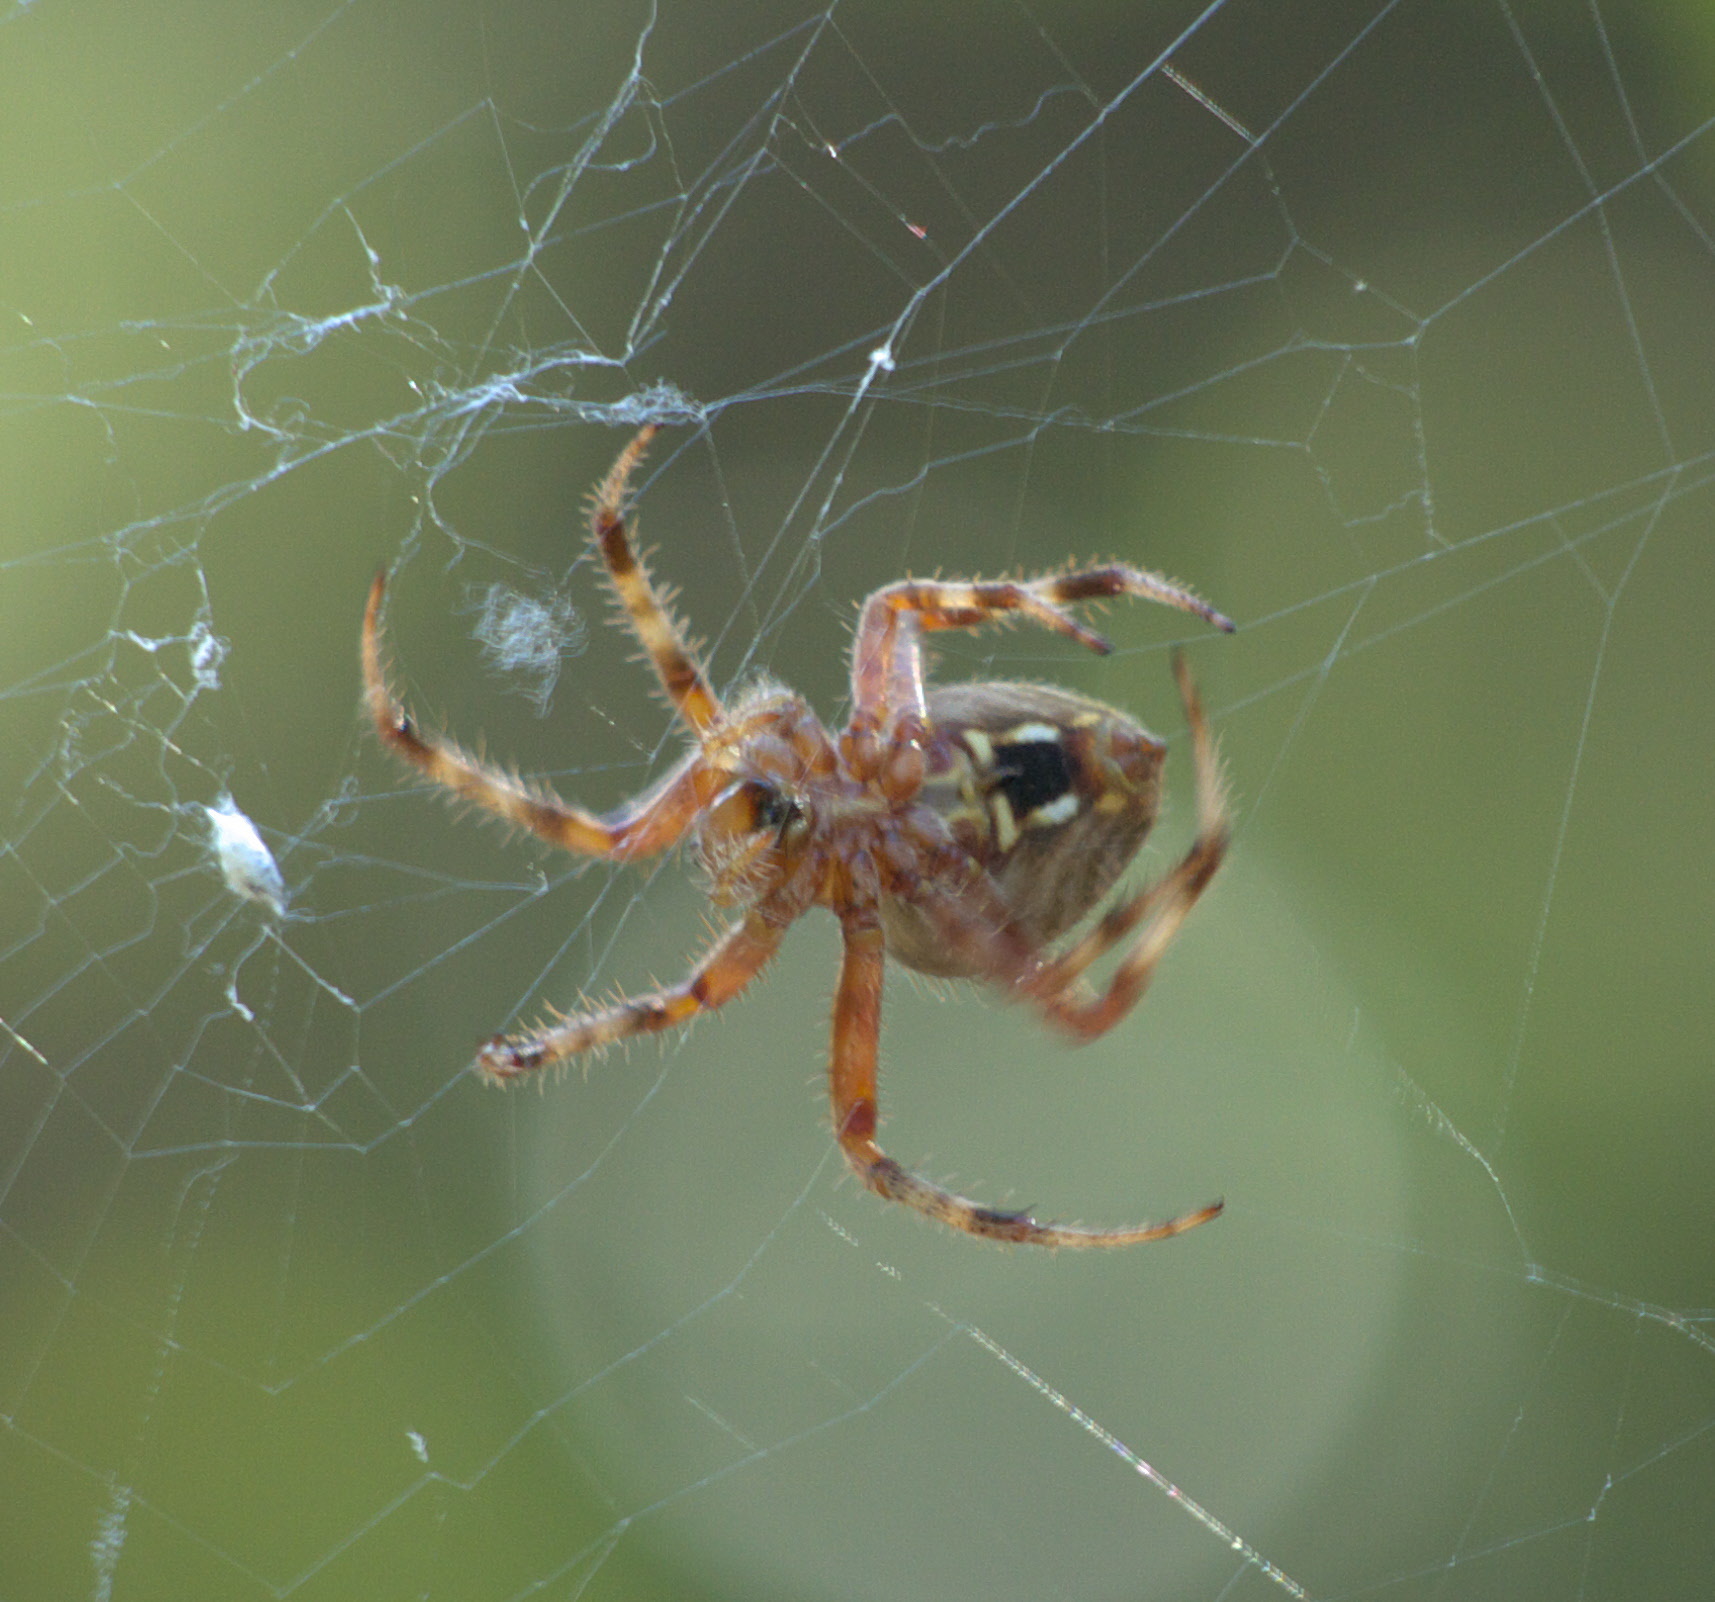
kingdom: Animalia
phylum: Arthropoda
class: Arachnida
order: Araneae
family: Araneidae
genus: Neoscona
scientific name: Neoscona crucifera
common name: Spotted orbweaver
